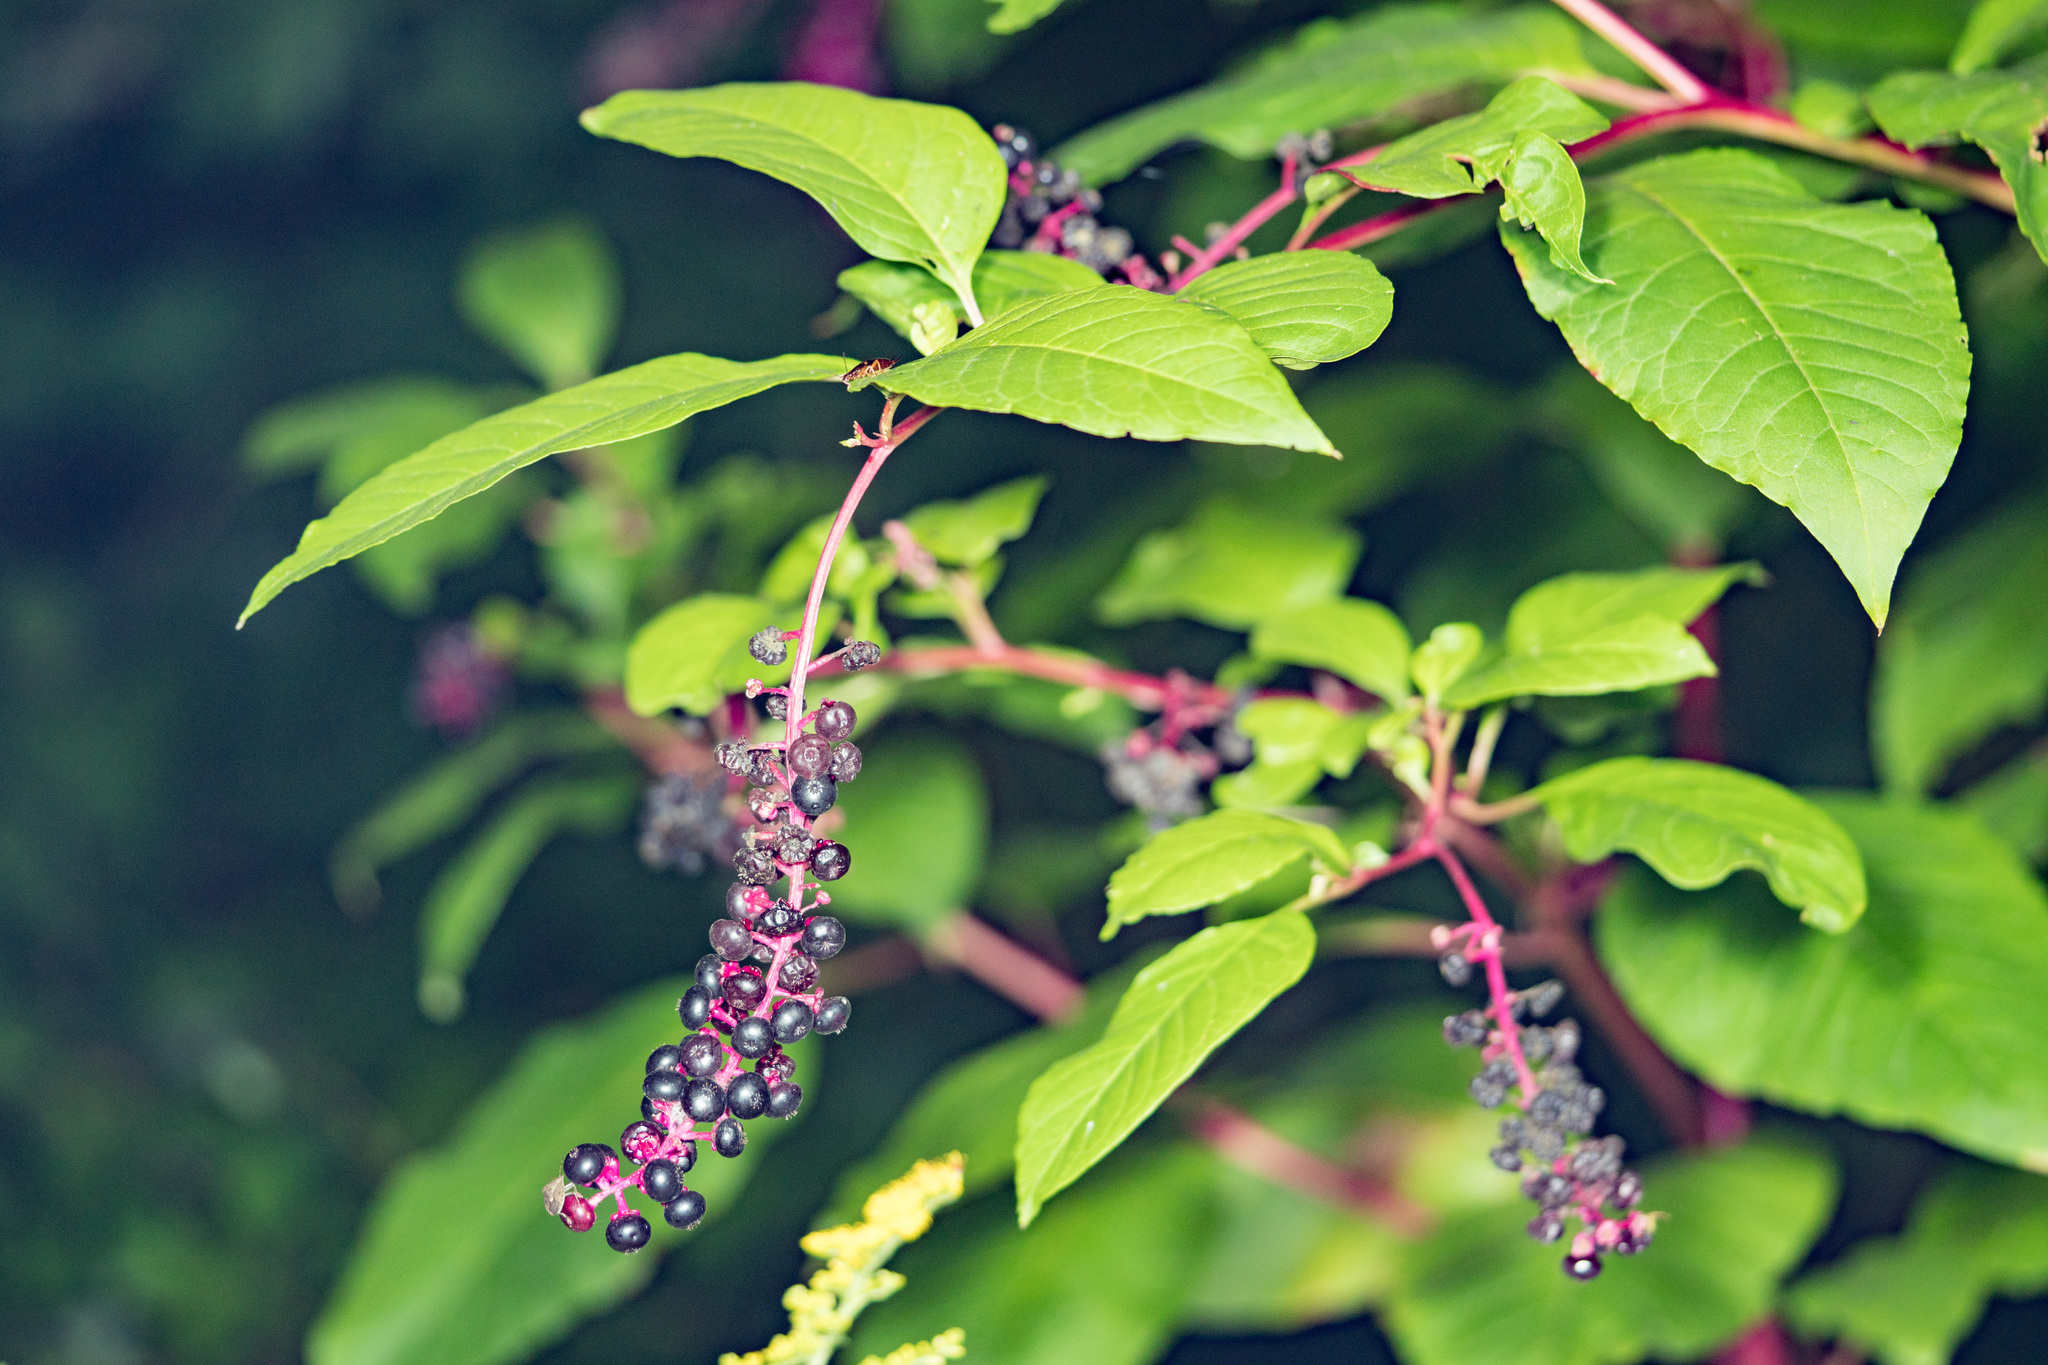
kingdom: Plantae
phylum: Tracheophyta
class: Magnoliopsida
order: Caryophyllales
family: Phytolaccaceae
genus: Phytolacca
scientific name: Phytolacca americana
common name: American pokeweed
